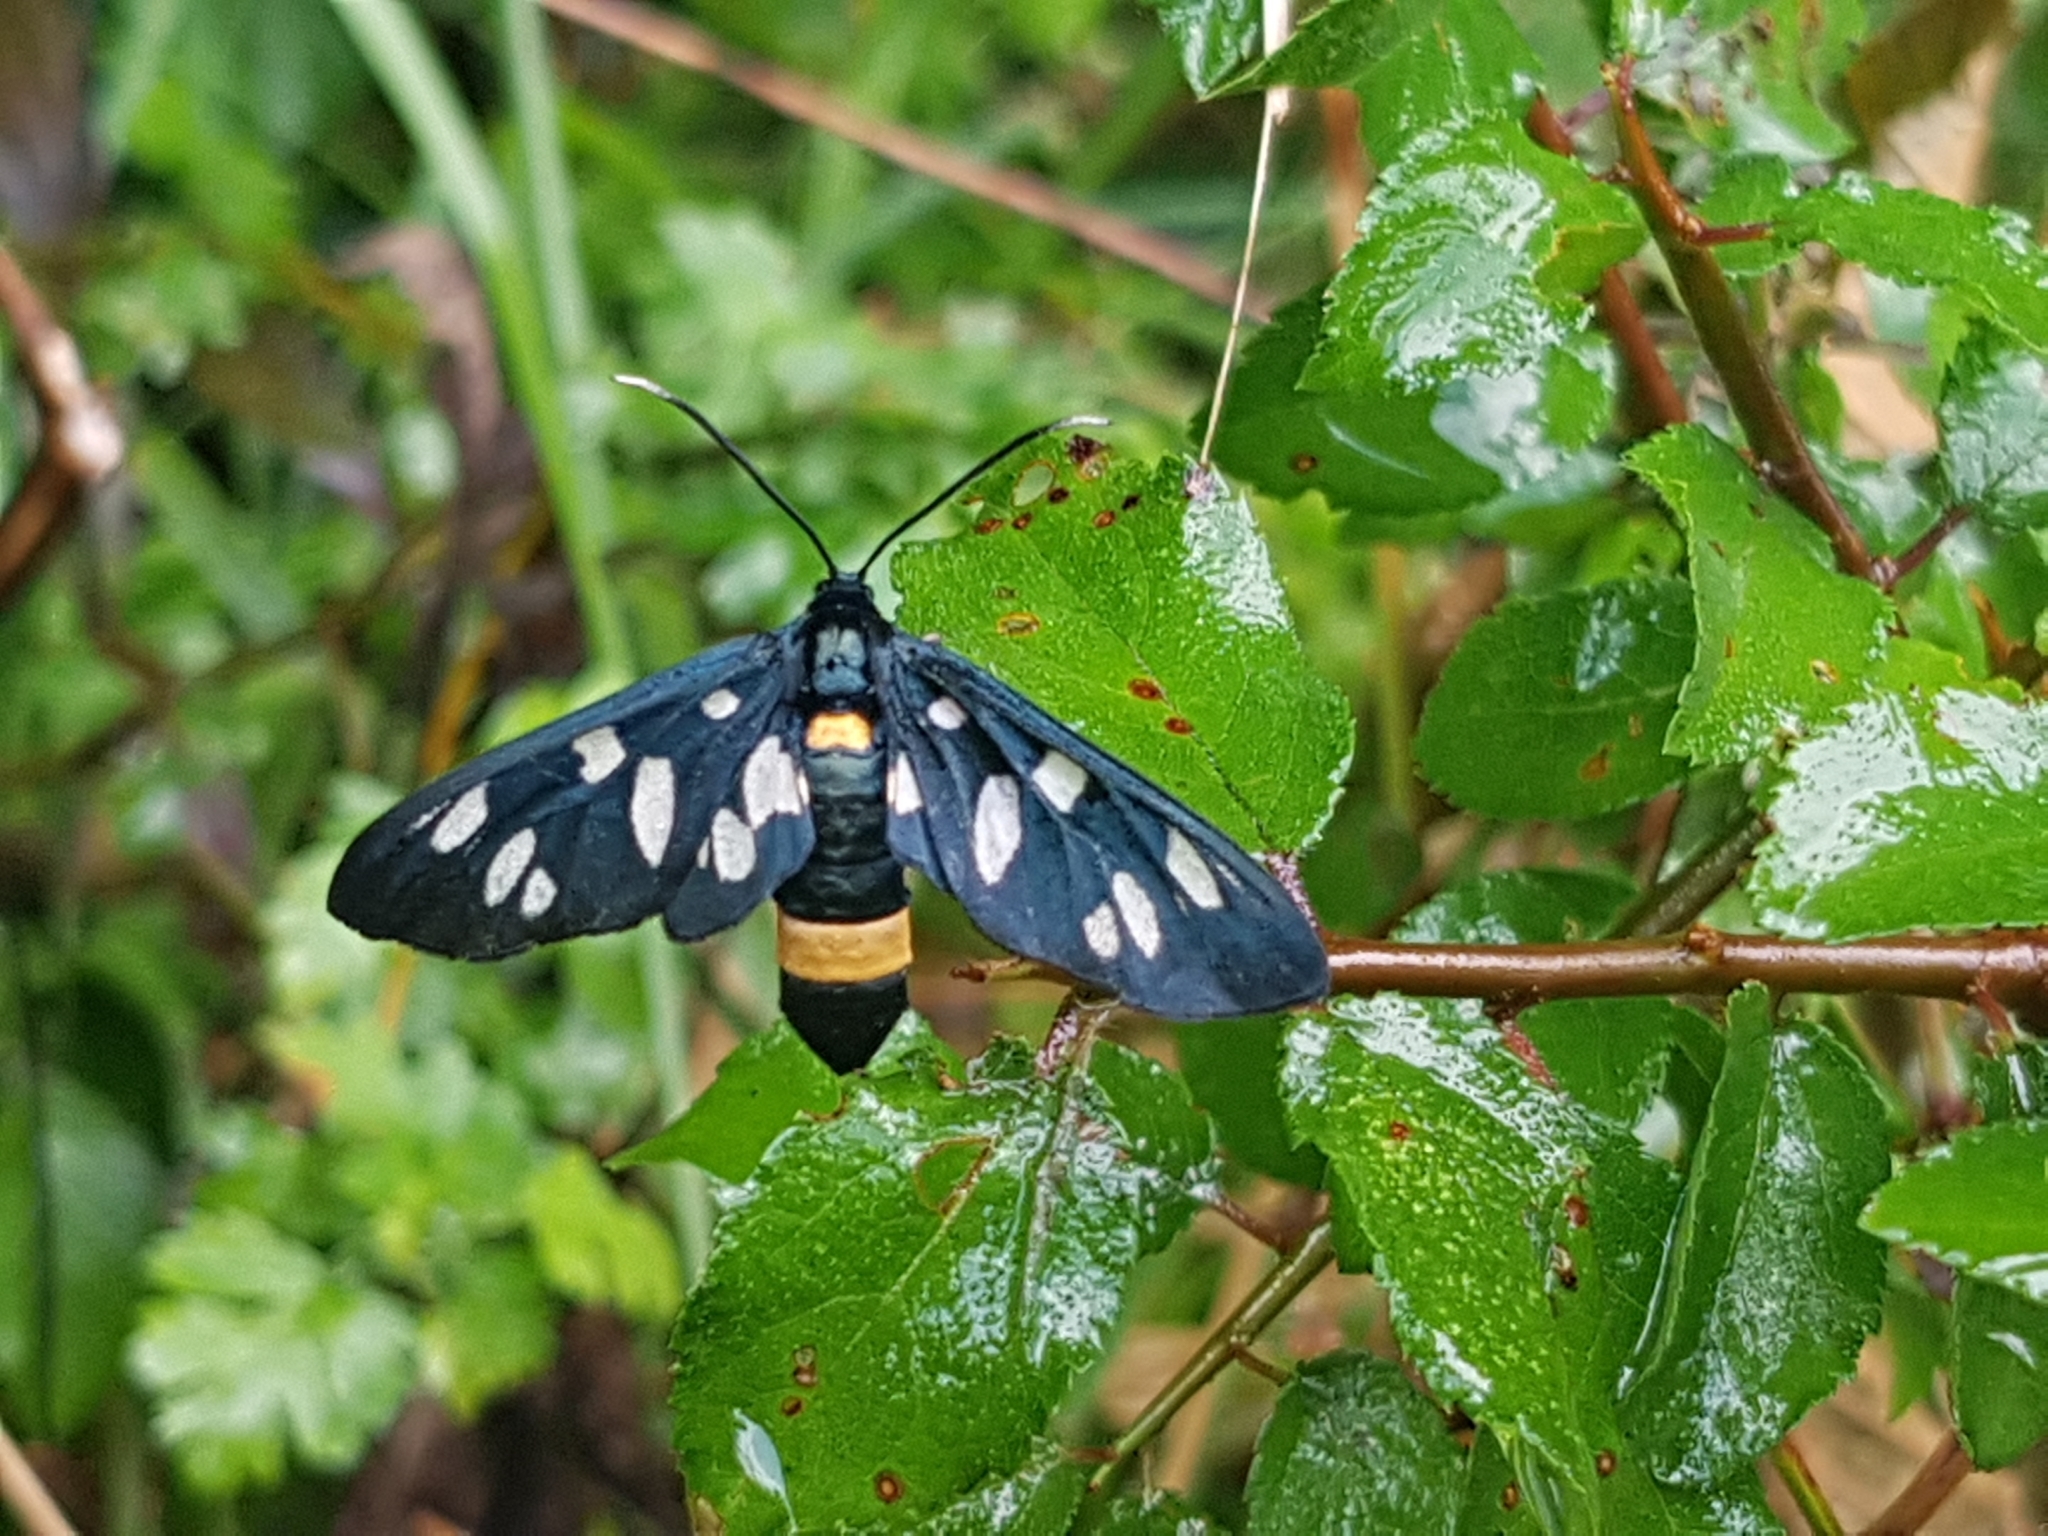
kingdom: Animalia
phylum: Arthropoda
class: Insecta
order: Lepidoptera
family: Erebidae
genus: Amata
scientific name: Amata phegea
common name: Nine-spotted
